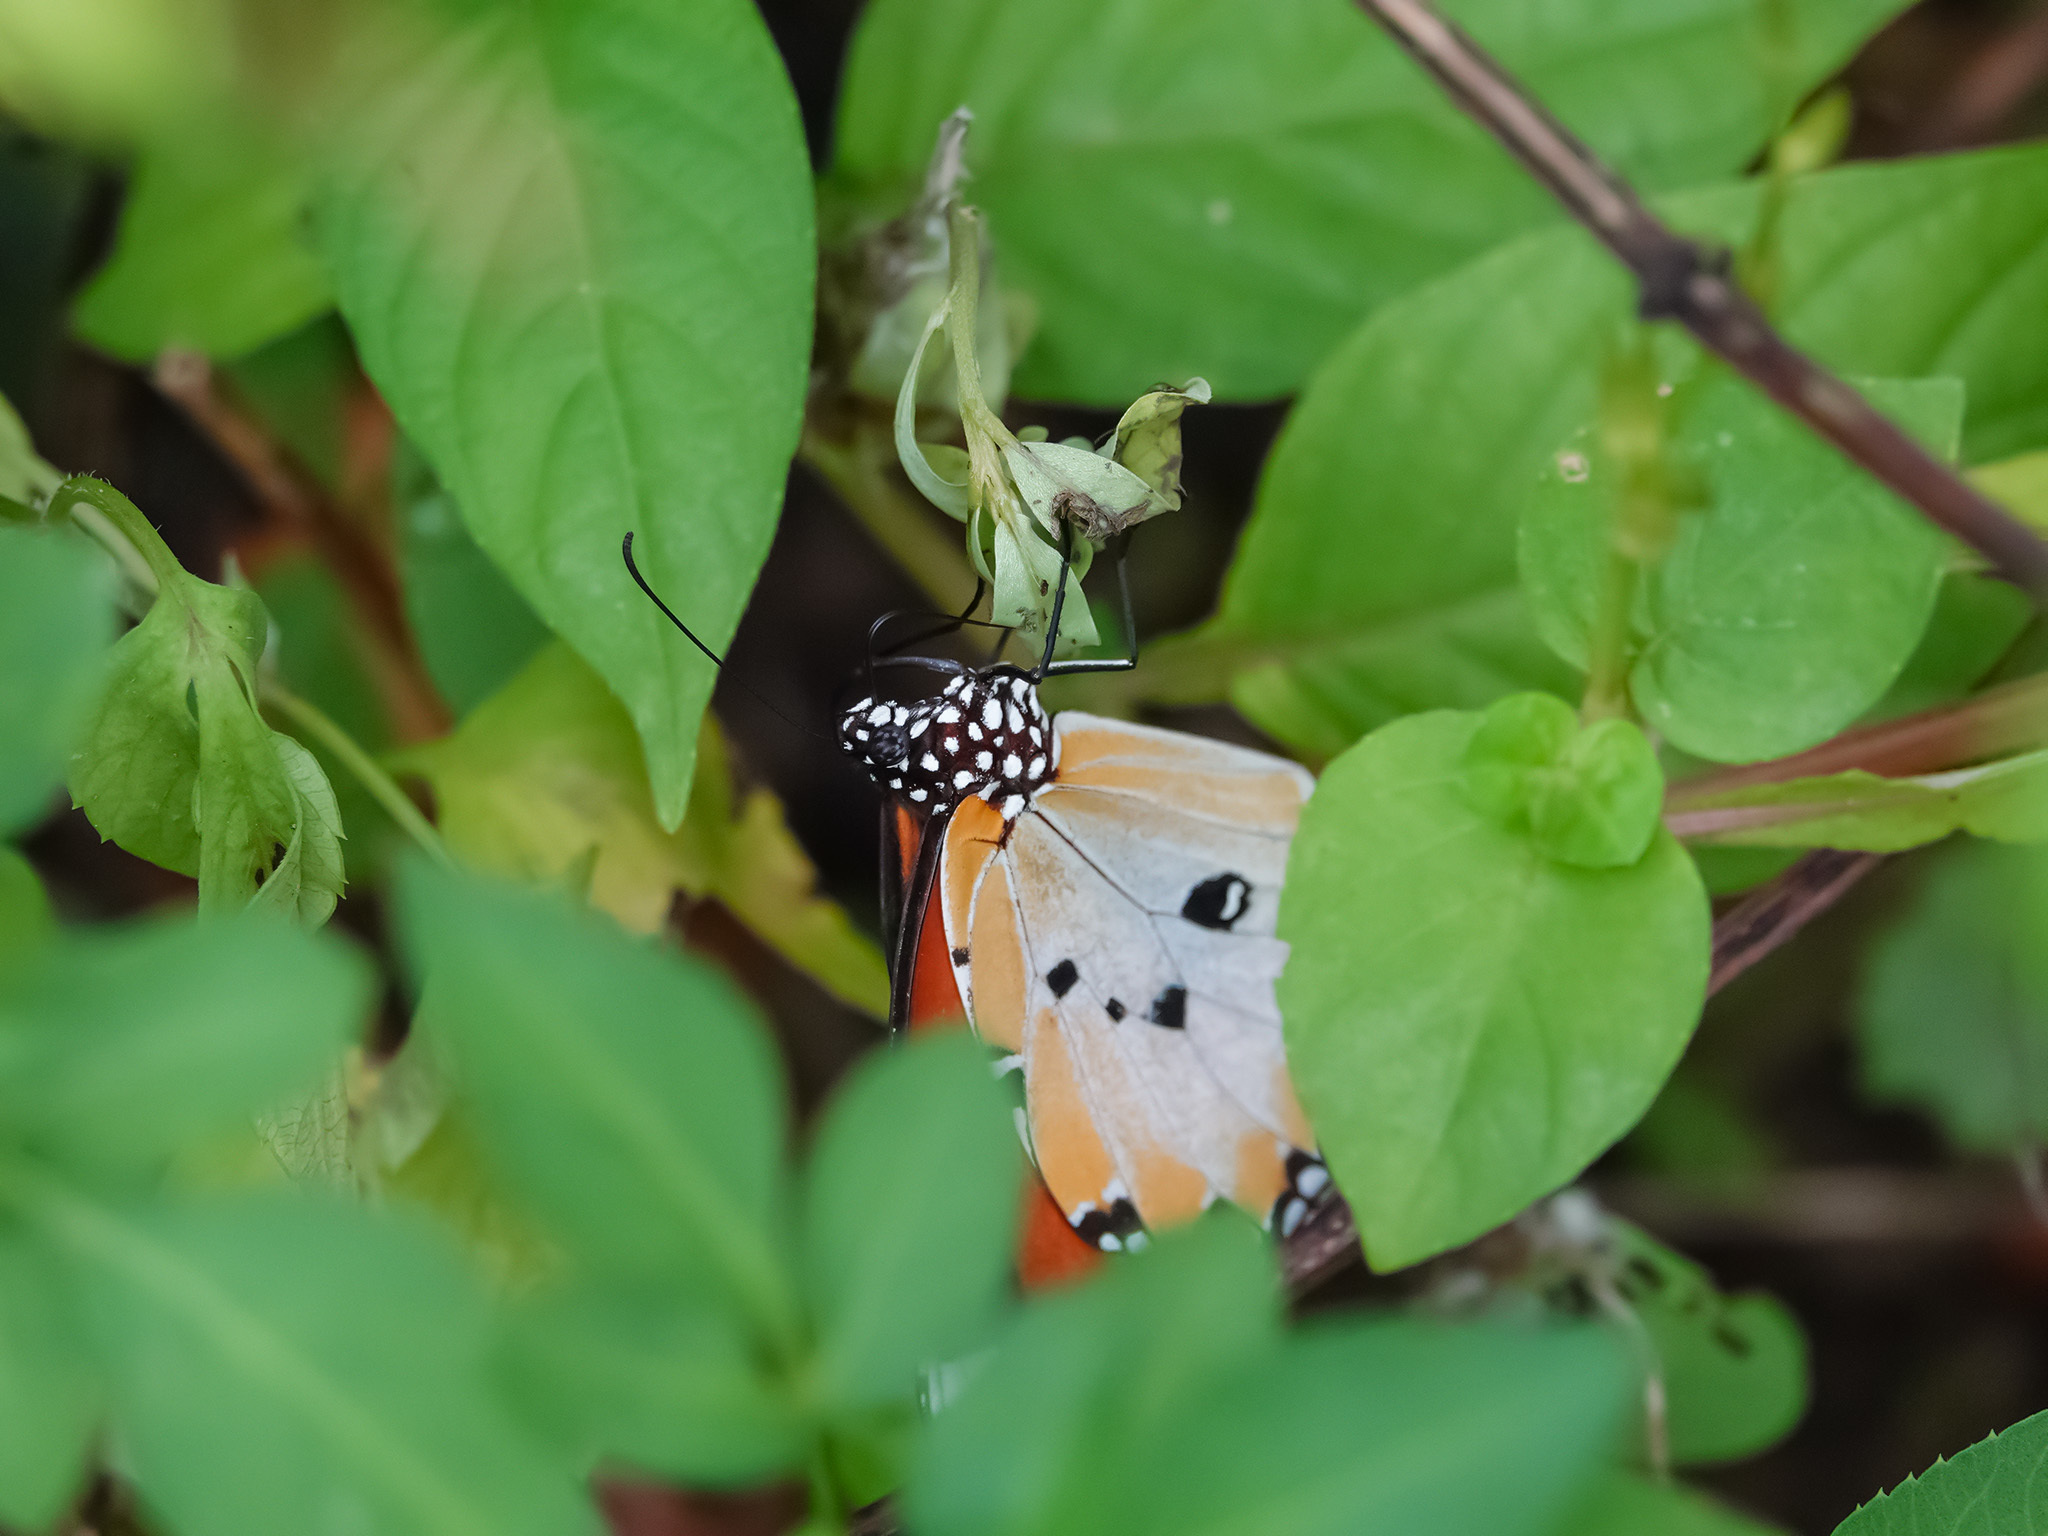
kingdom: Animalia
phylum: Arthropoda
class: Insecta
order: Lepidoptera
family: Nymphalidae
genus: Danaus
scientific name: Danaus chrysippus
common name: Plain tiger
